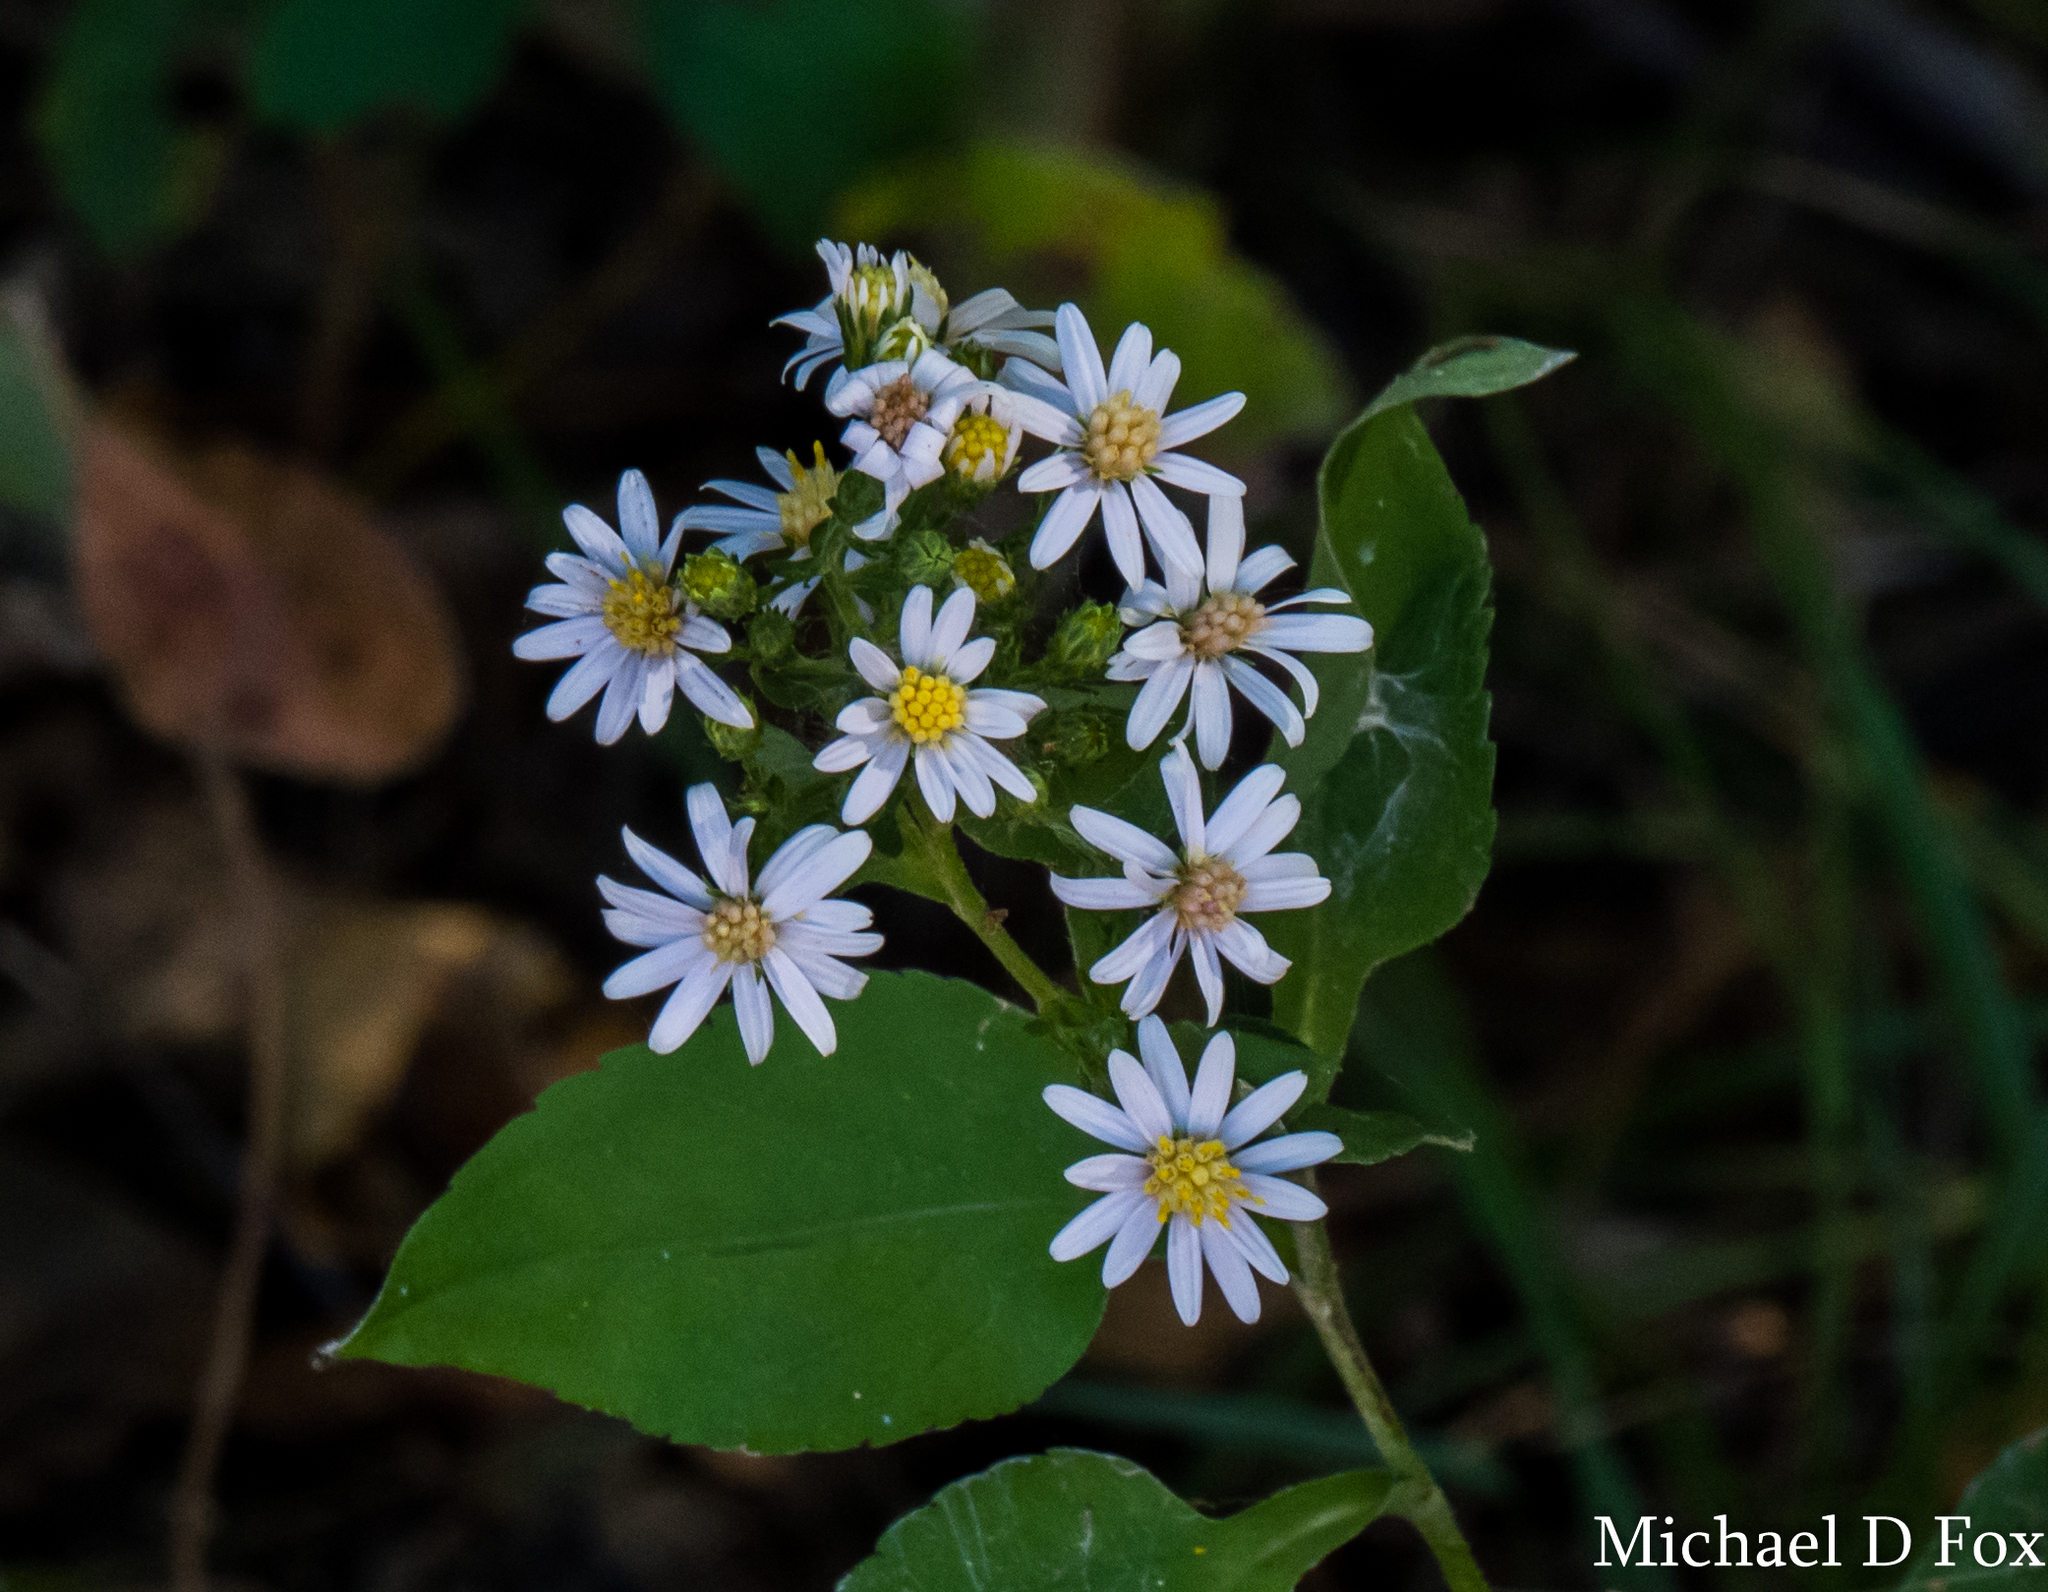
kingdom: Plantae
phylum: Tracheophyta
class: Magnoliopsida
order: Asterales
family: Asteraceae
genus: Symphyotrichum
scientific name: Symphyotrichum drummondii
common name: Drummond's aster
